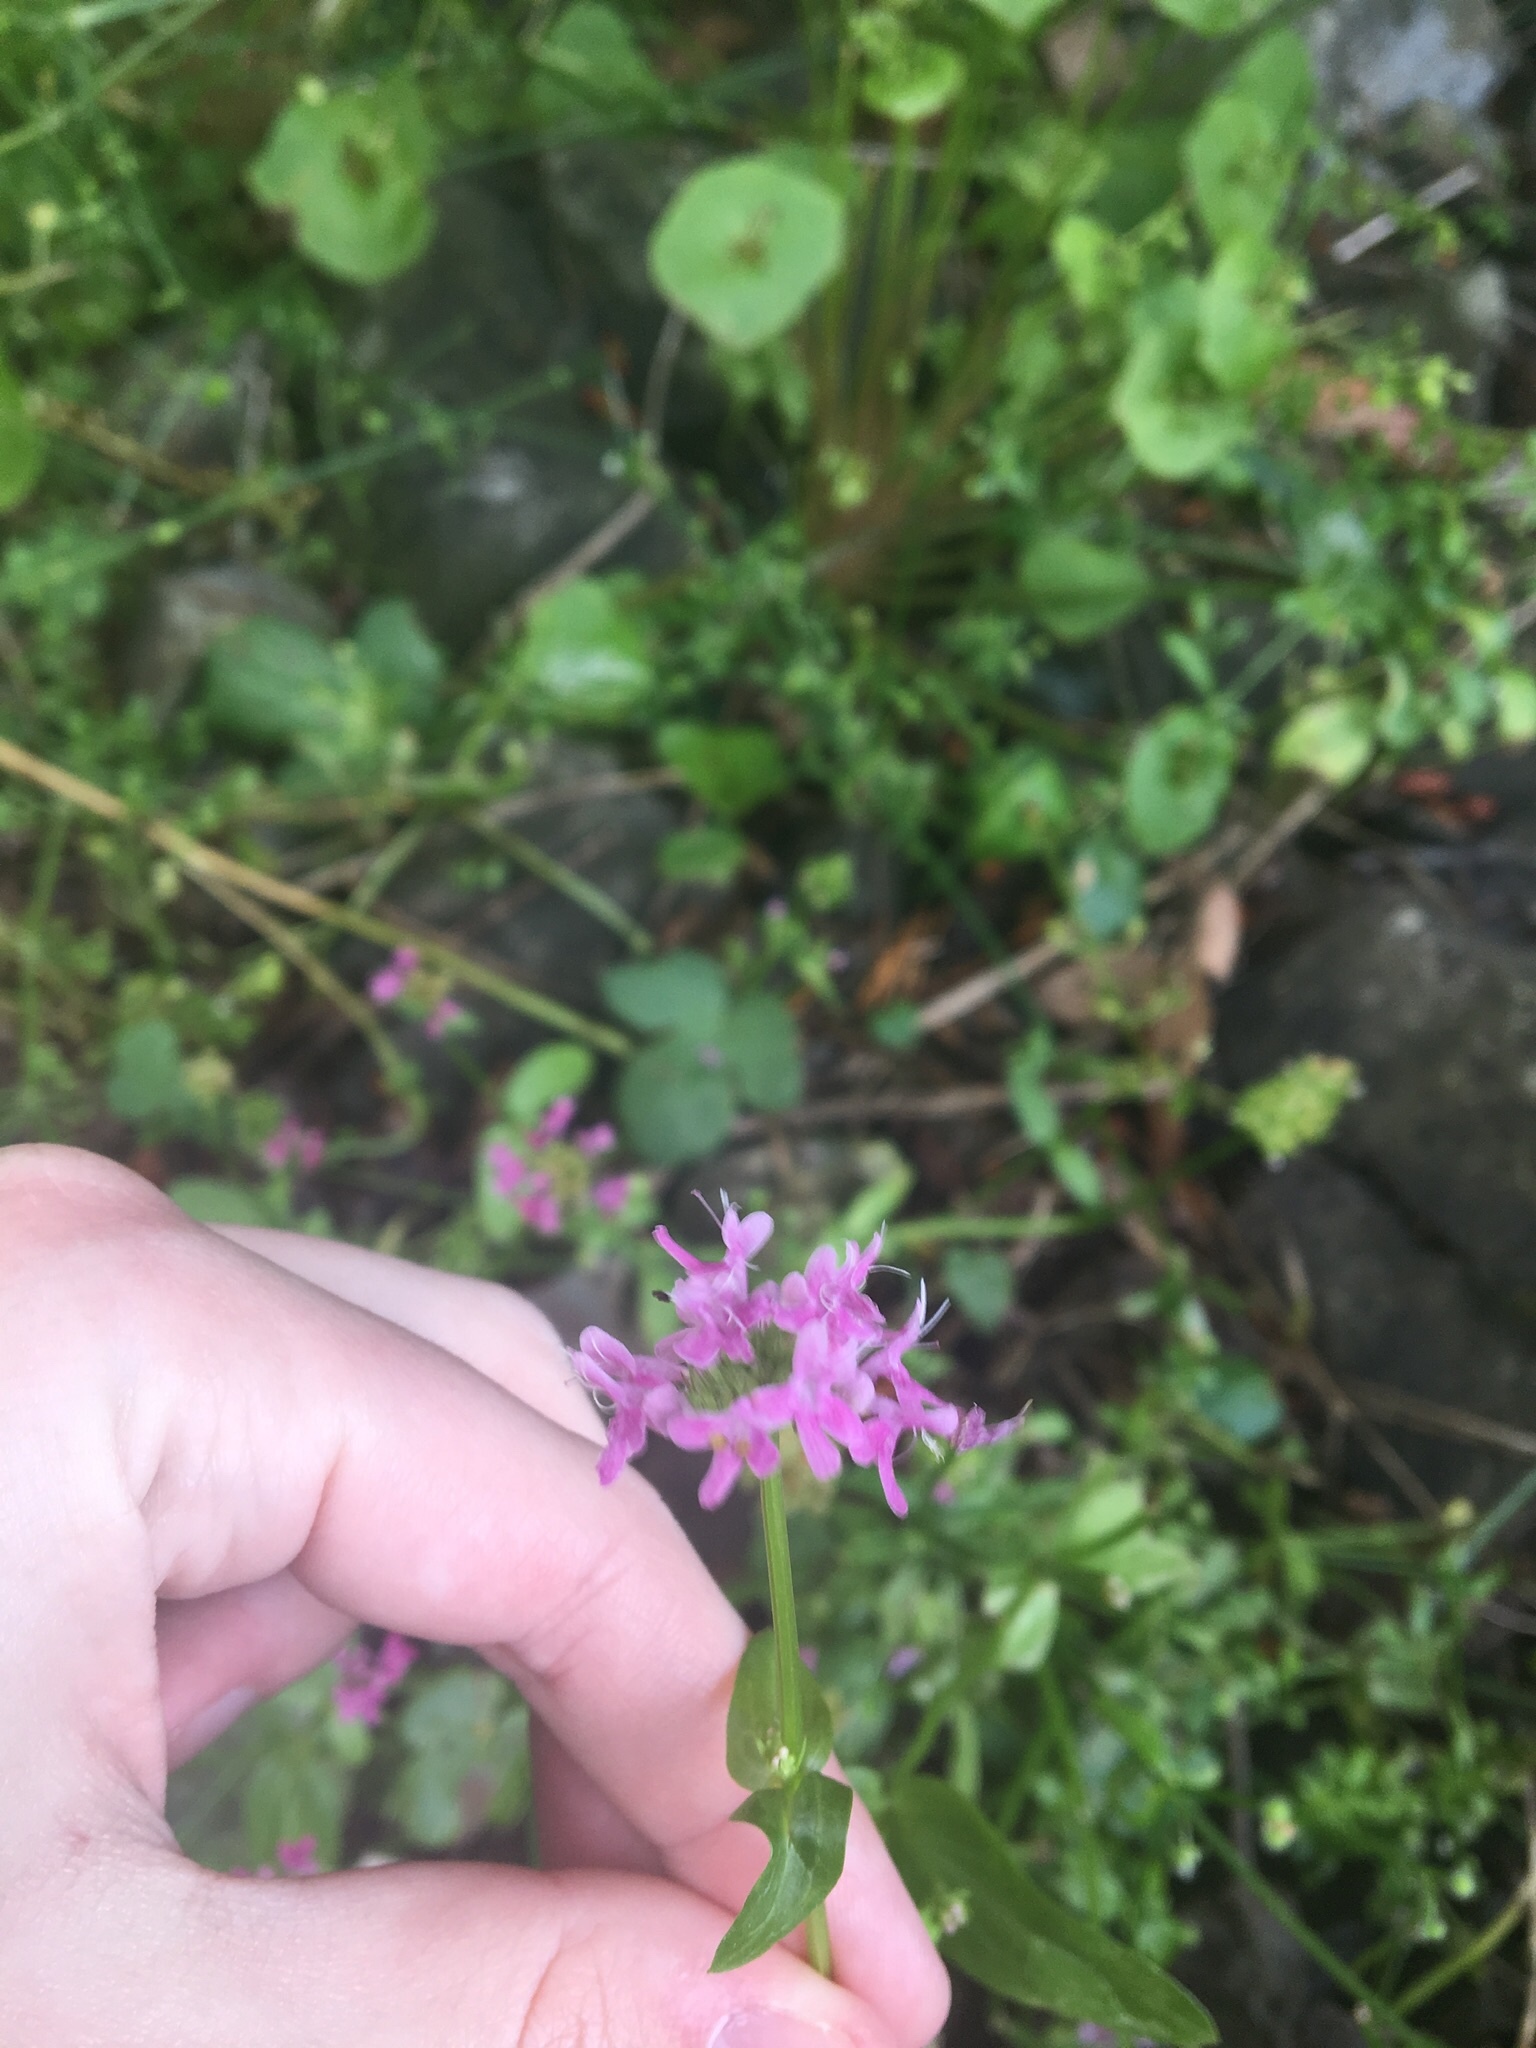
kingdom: Plantae
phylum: Tracheophyta
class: Magnoliopsida
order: Dipsacales
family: Caprifoliaceae
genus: Plectritis
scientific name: Plectritis congesta
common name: Pink plectritis
